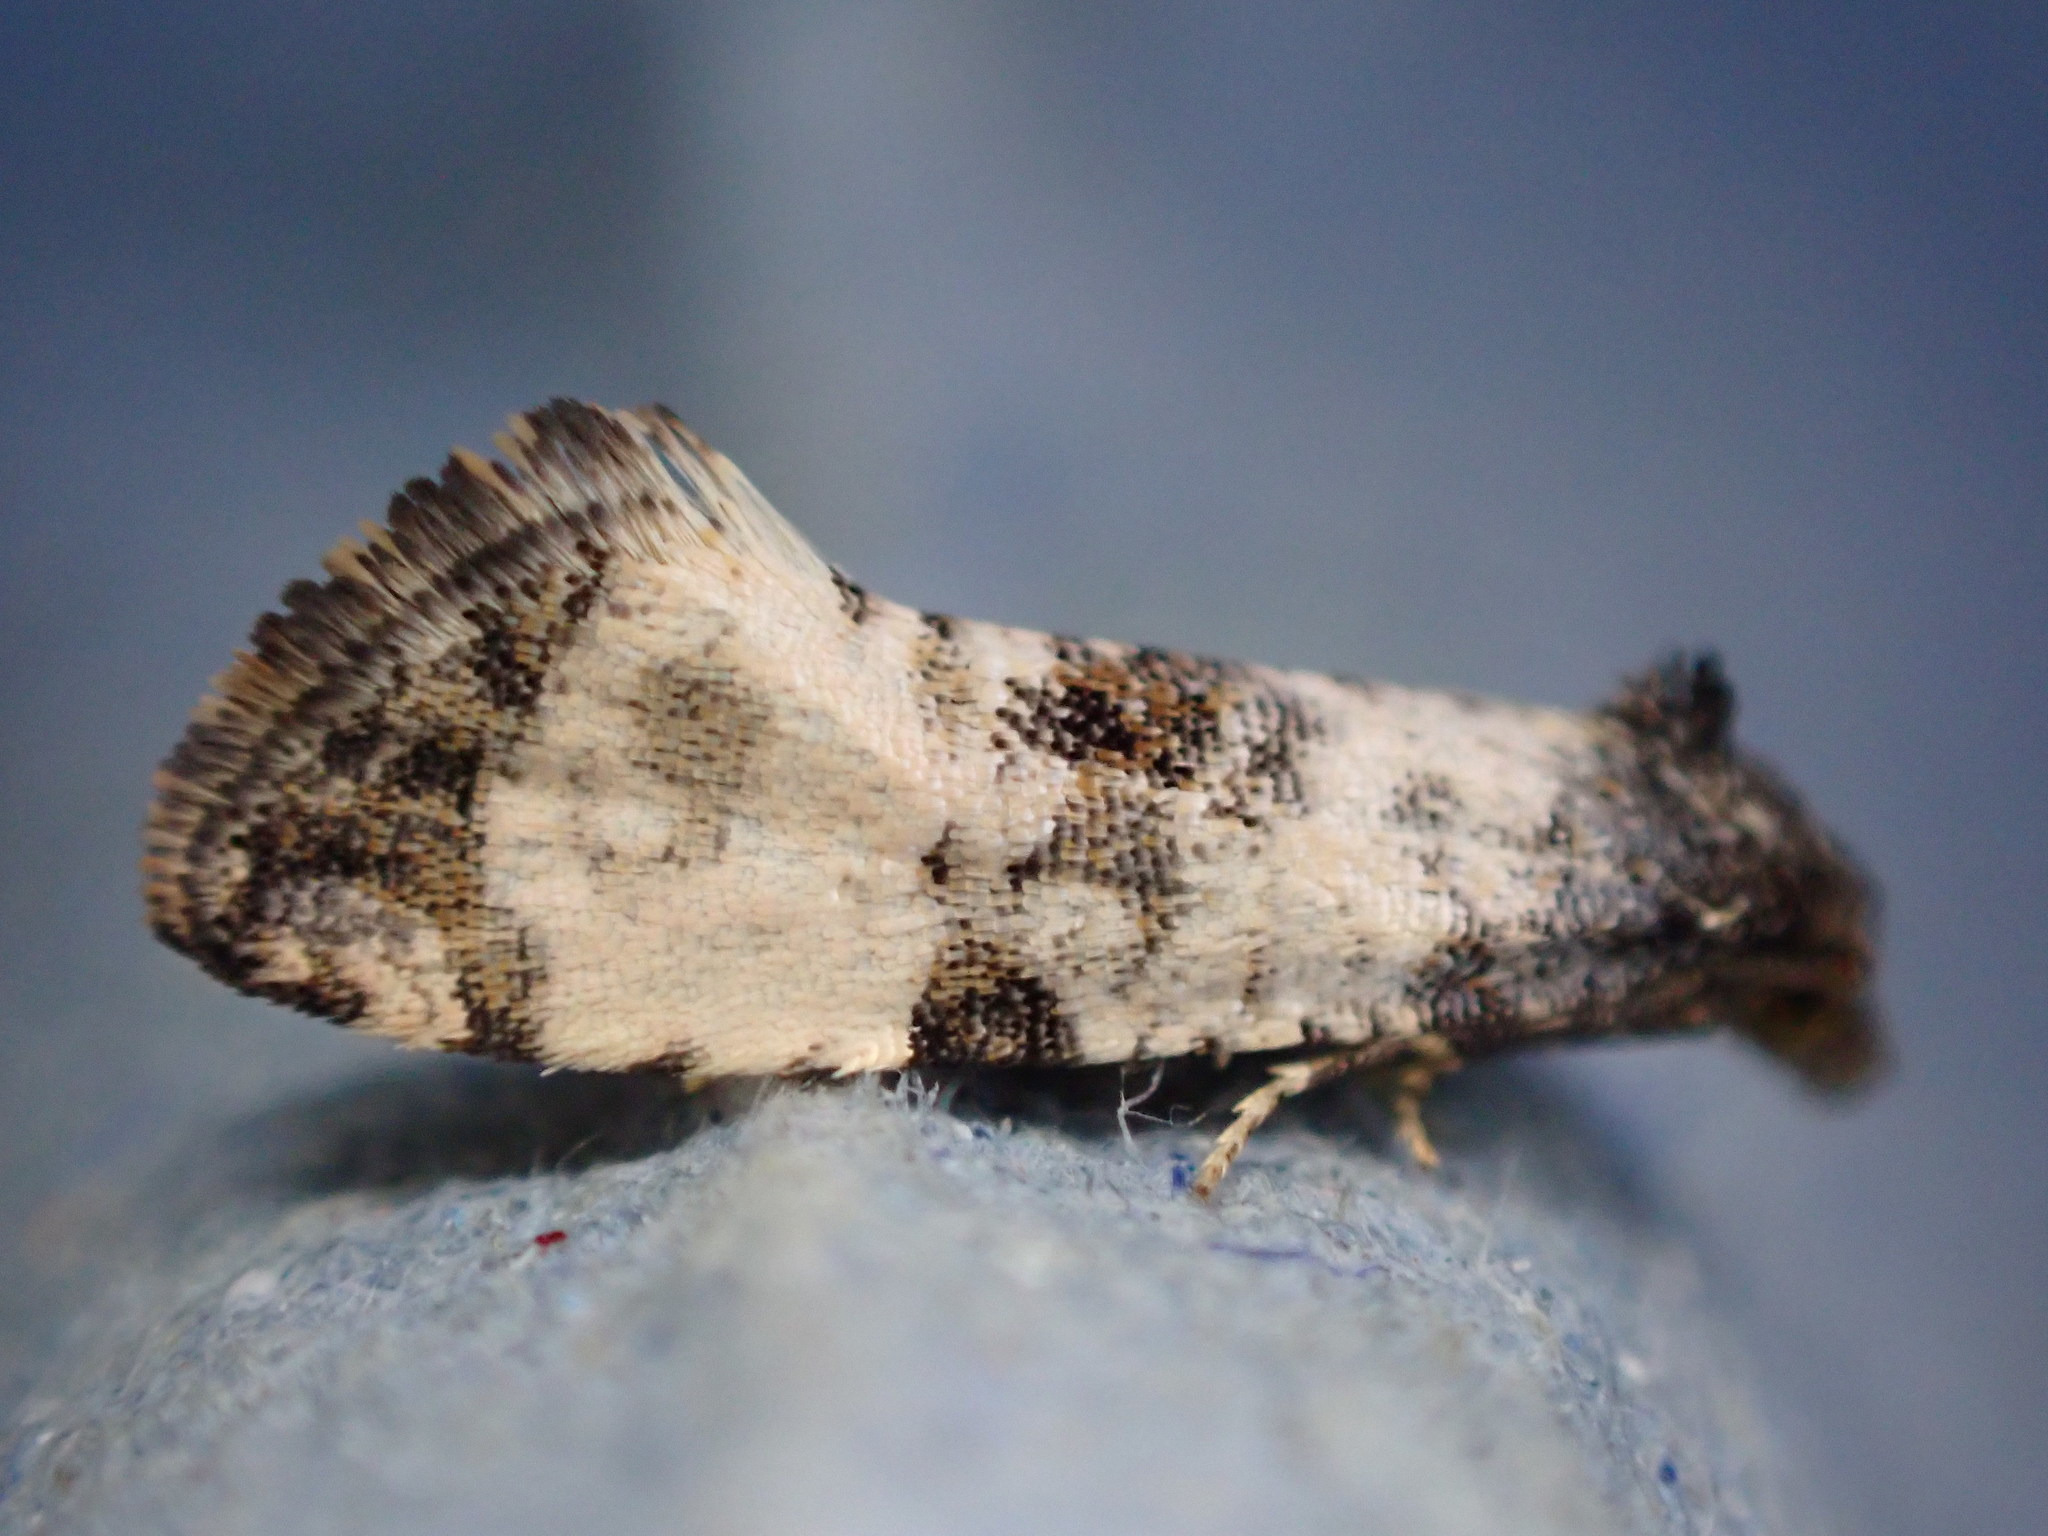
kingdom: Animalia
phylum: Arthropoda
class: Insecta
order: Lepidoptera
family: Tortricidae
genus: Cochylis
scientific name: Cochylis atricapitana
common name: Tortricid moth
